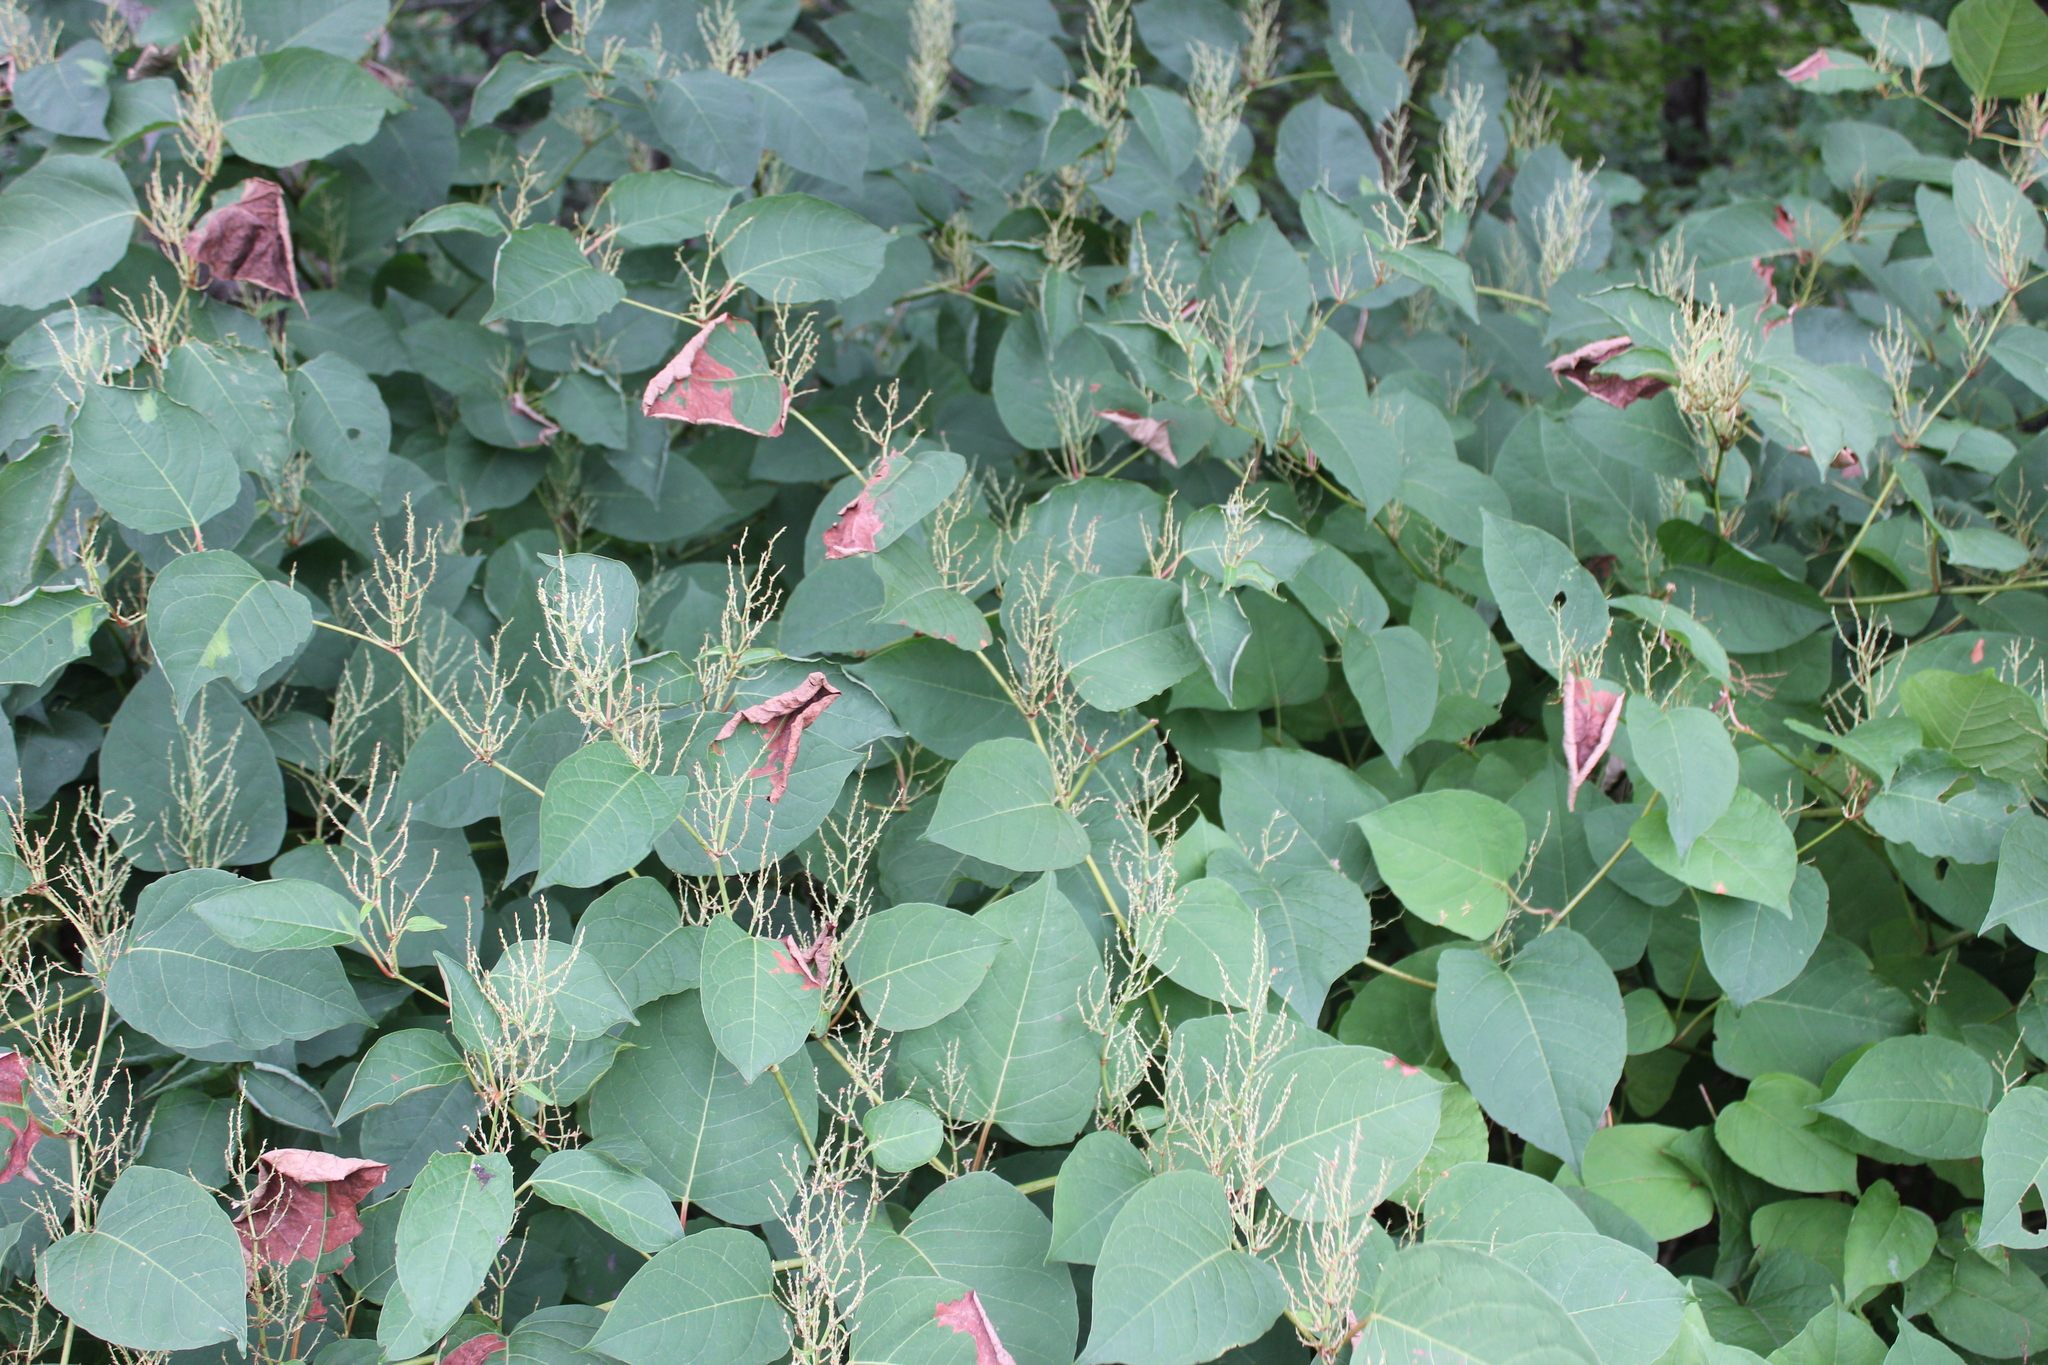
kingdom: Plantae
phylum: Tracheophyta
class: Magnoliopsida
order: Caryophyllales
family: Polygonaceae
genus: Reynoutria
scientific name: Reynoutria japonica
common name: Japanese knotweed
